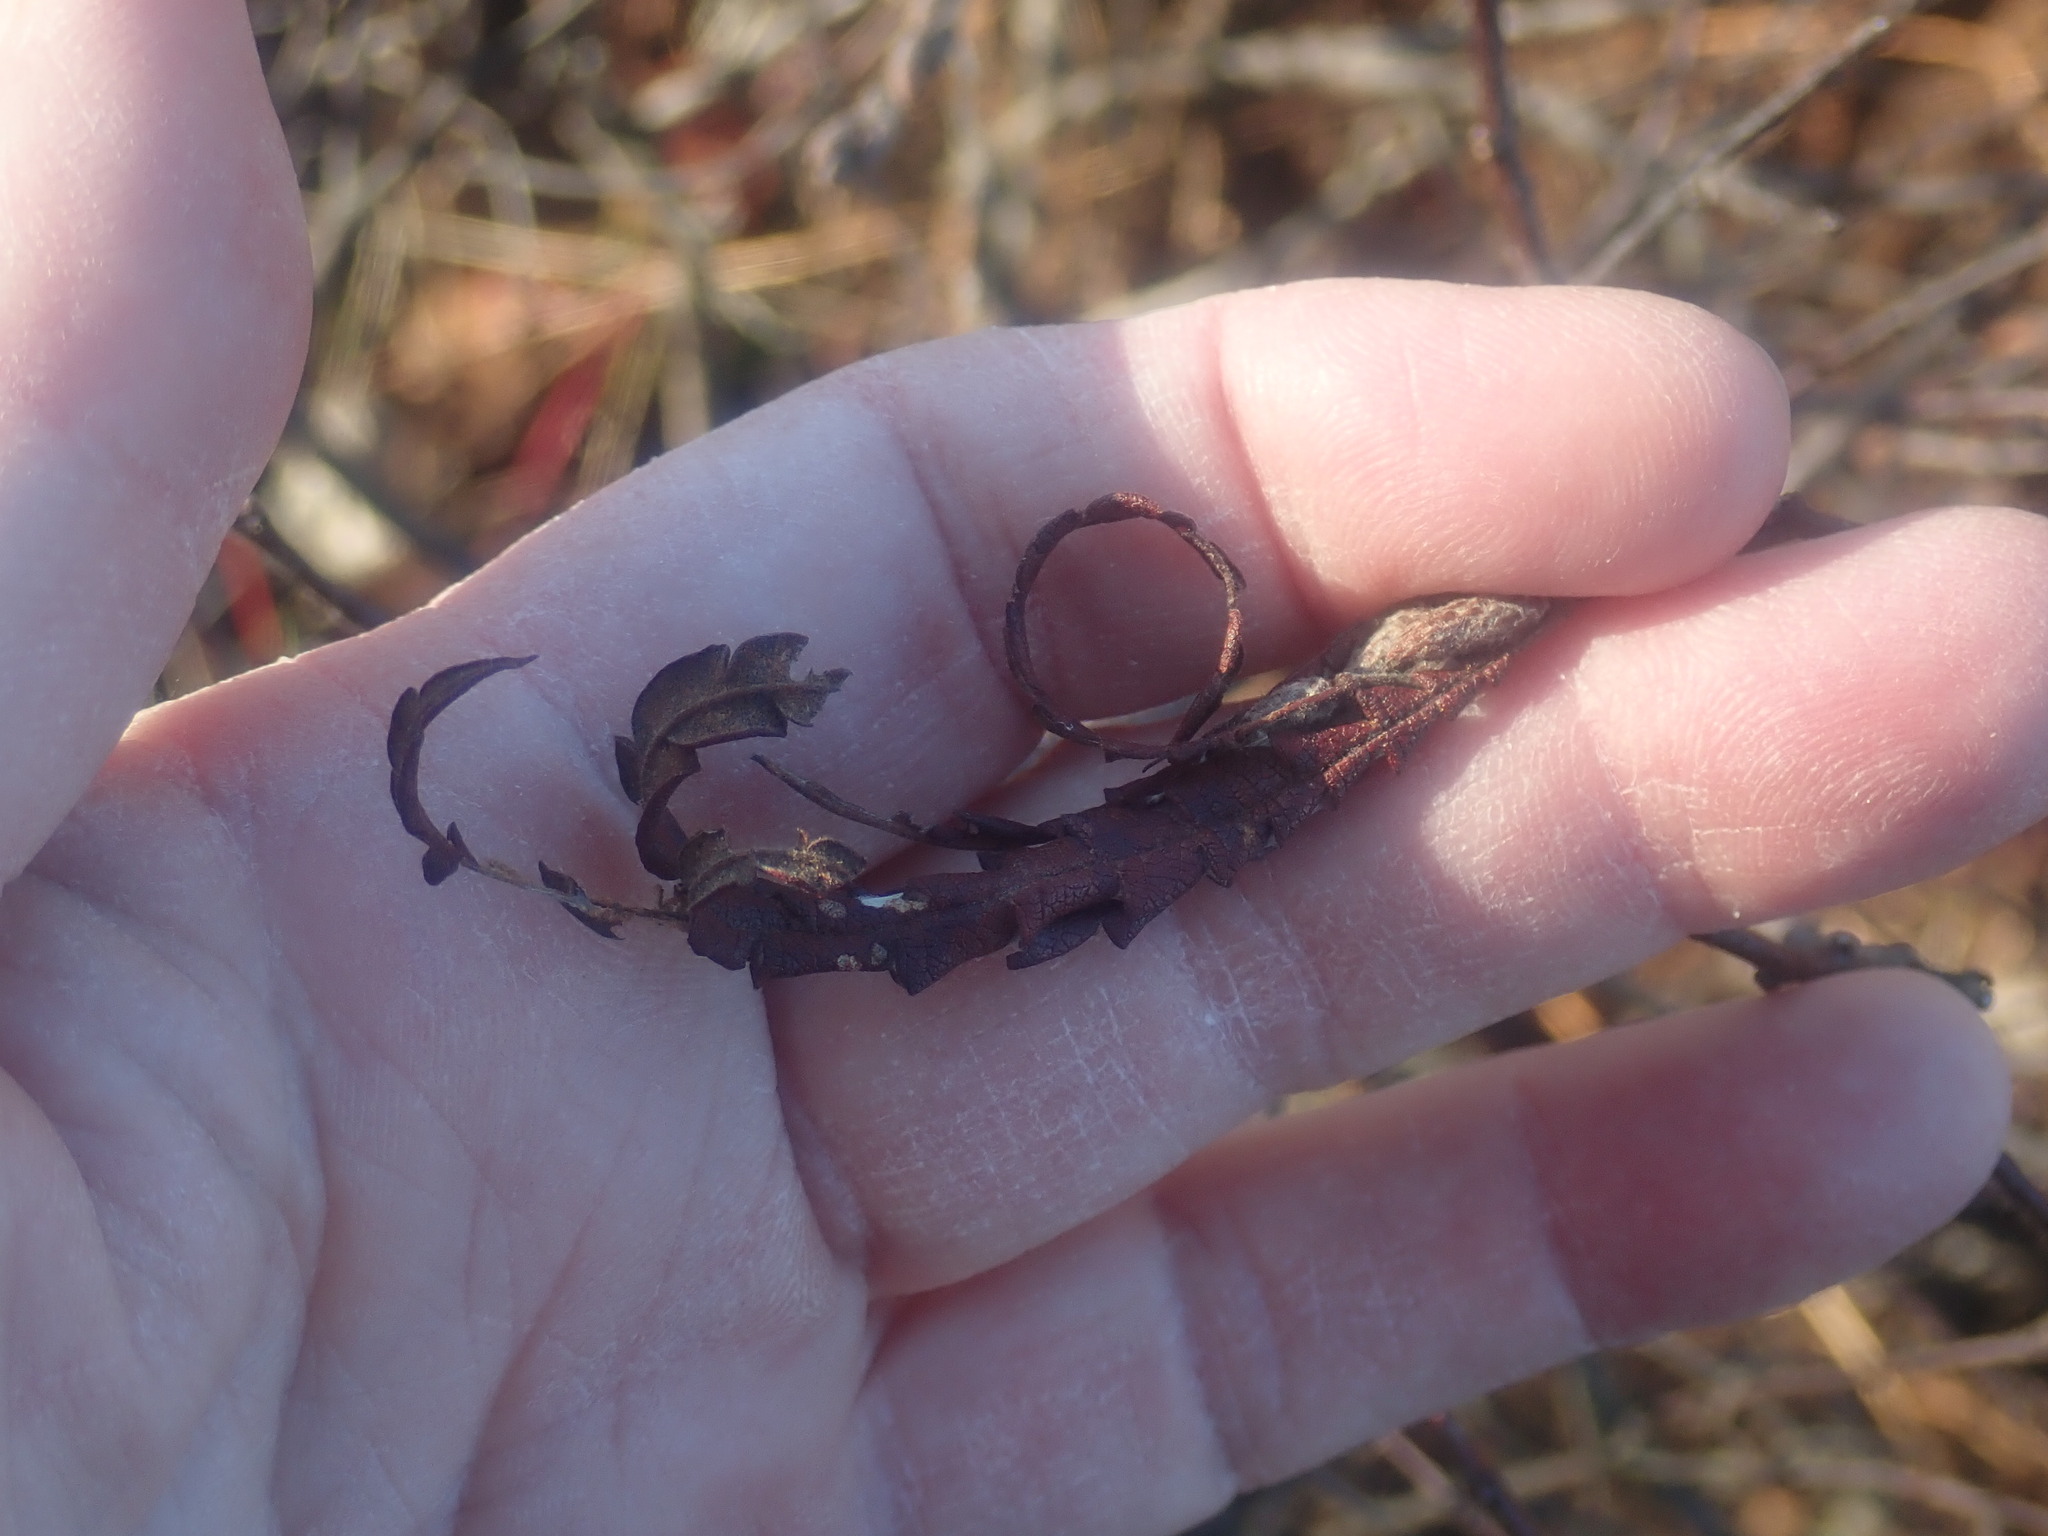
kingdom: Plantae
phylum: Tracheophyta
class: Magnoliopsida
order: Fagales
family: Myricaceae
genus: Comptonia
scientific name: Comptonia peregrina
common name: Sweet-fern
